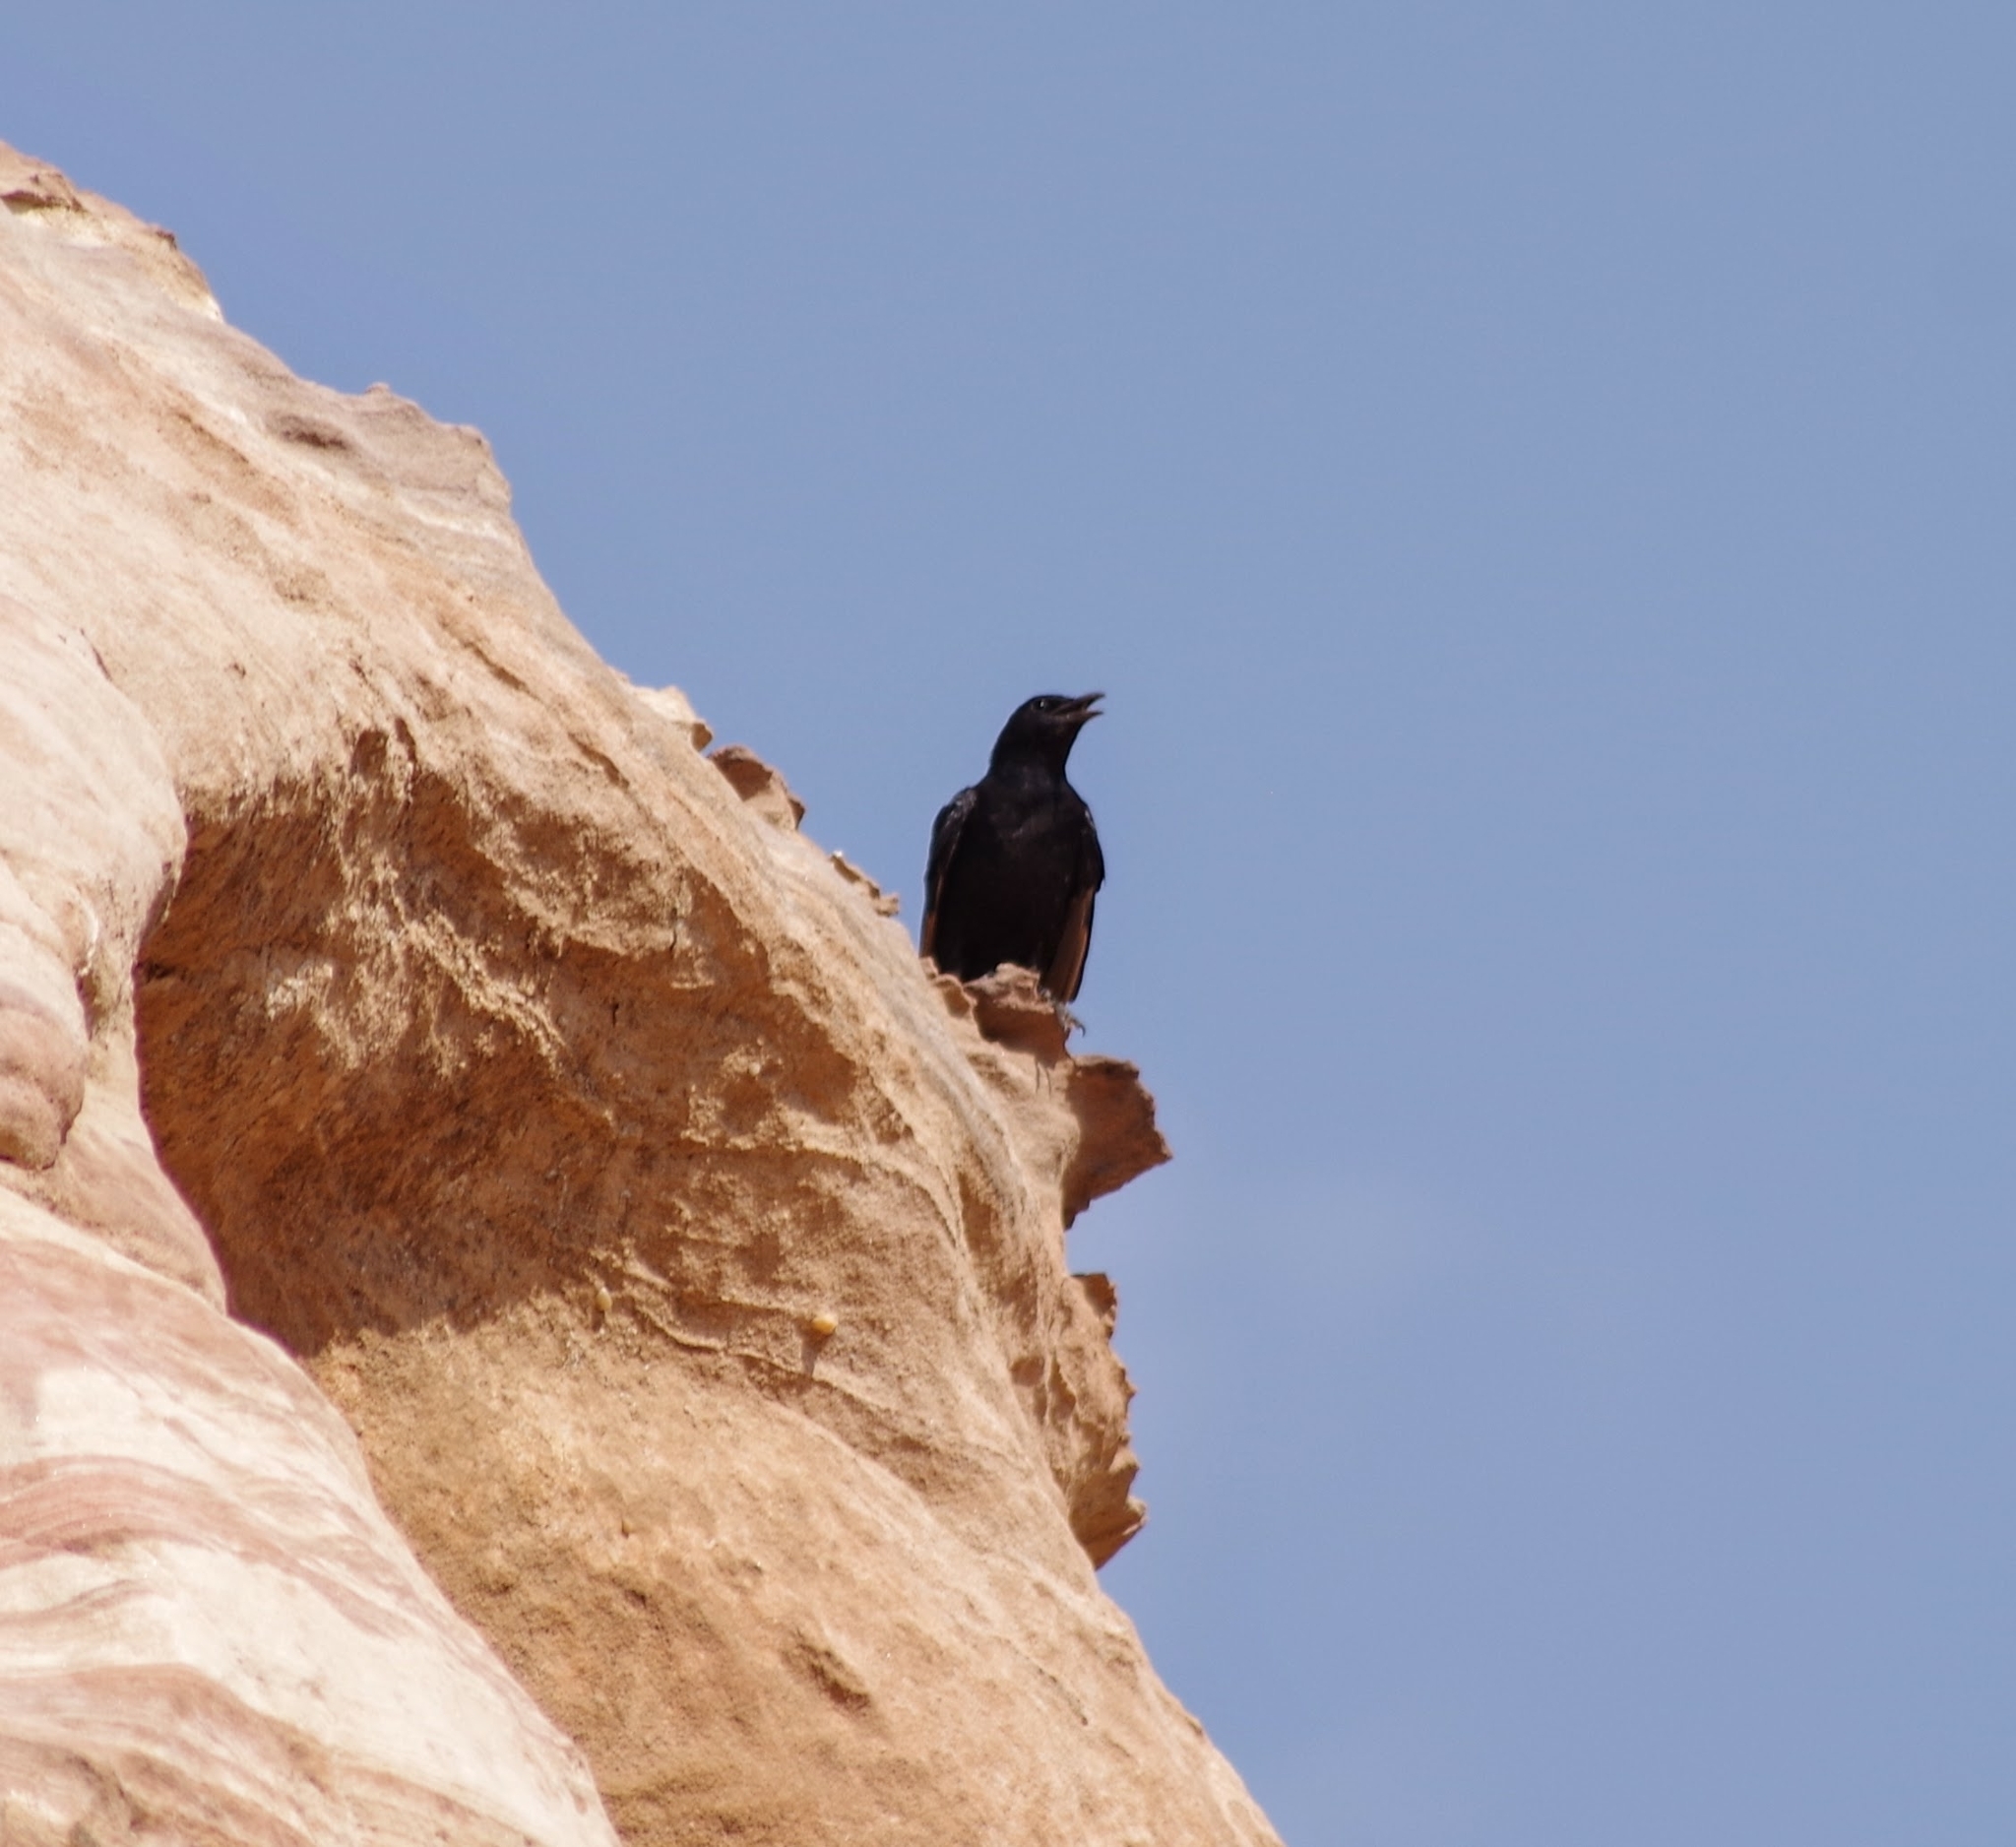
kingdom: Animalia
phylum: Chordata
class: Aves
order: Passeriformes
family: Sturnidae
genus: Onychognathus
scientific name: Onychognathus tristramii
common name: Tristram's starling
